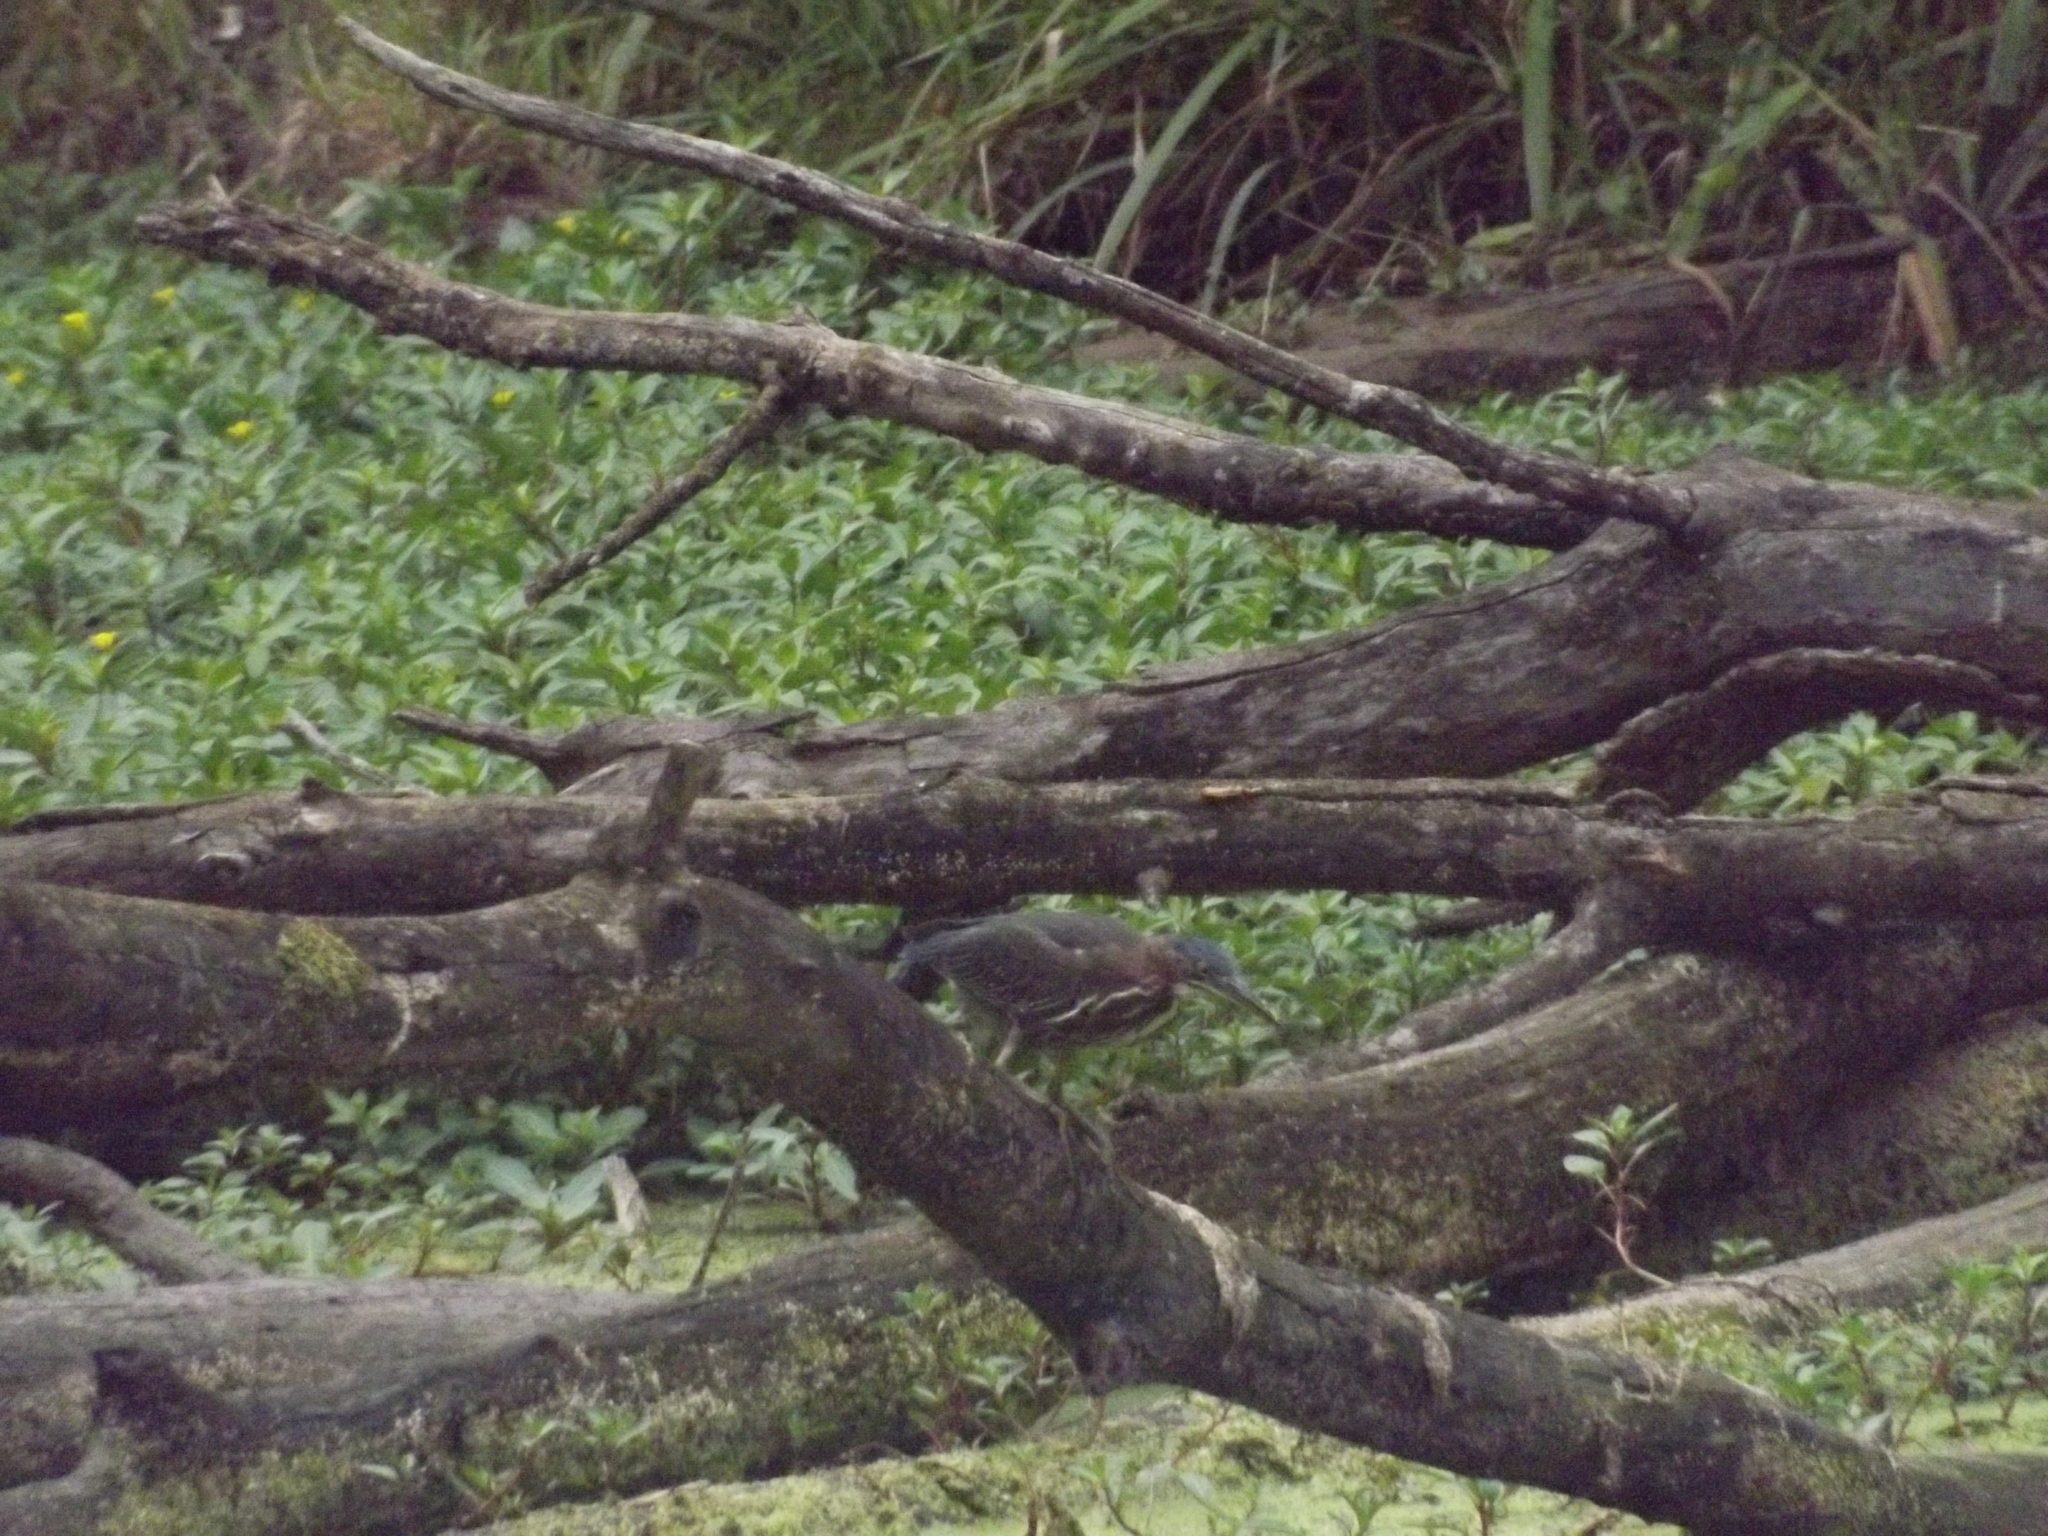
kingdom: Animalia
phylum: Chordata
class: Aves
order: Pelecaniformes
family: Ardeidae
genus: Butorides
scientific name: Butorides virescens
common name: Green heron
